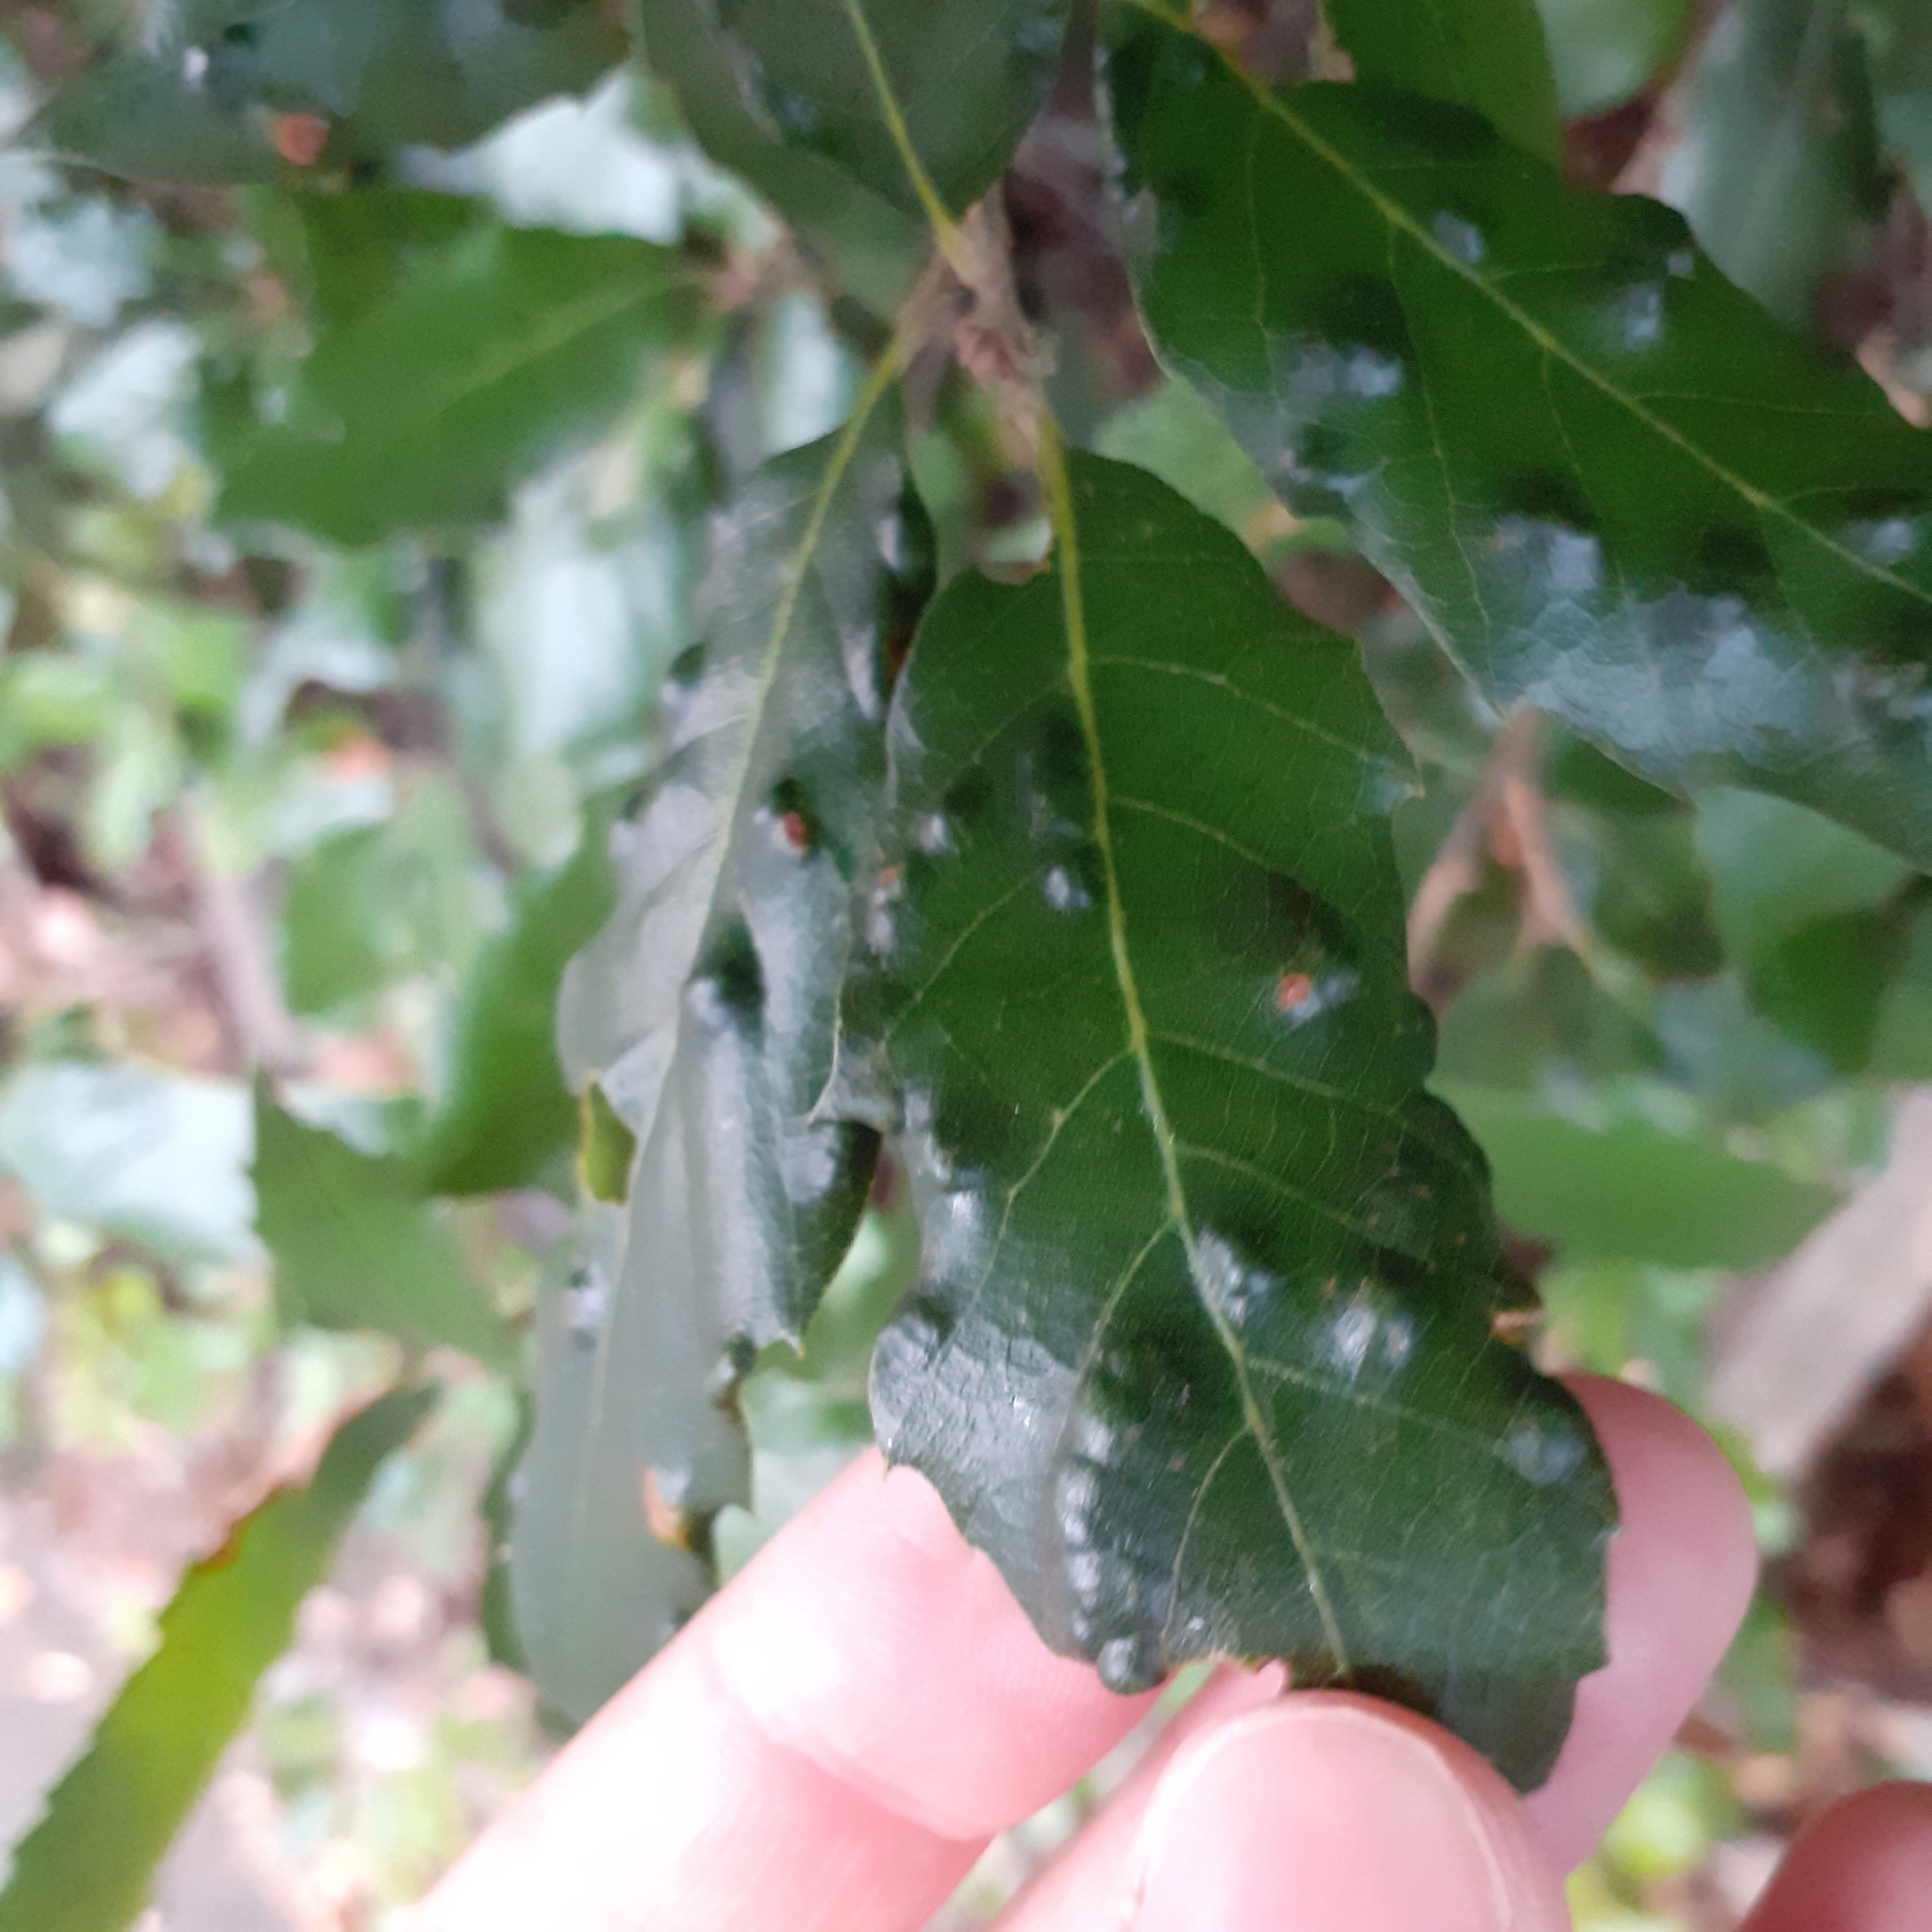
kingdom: Animalia
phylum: Arthropoda
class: Arachnida
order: Trombidiformes
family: Eriophyidae
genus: Aceria
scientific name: Aceria ilicis
